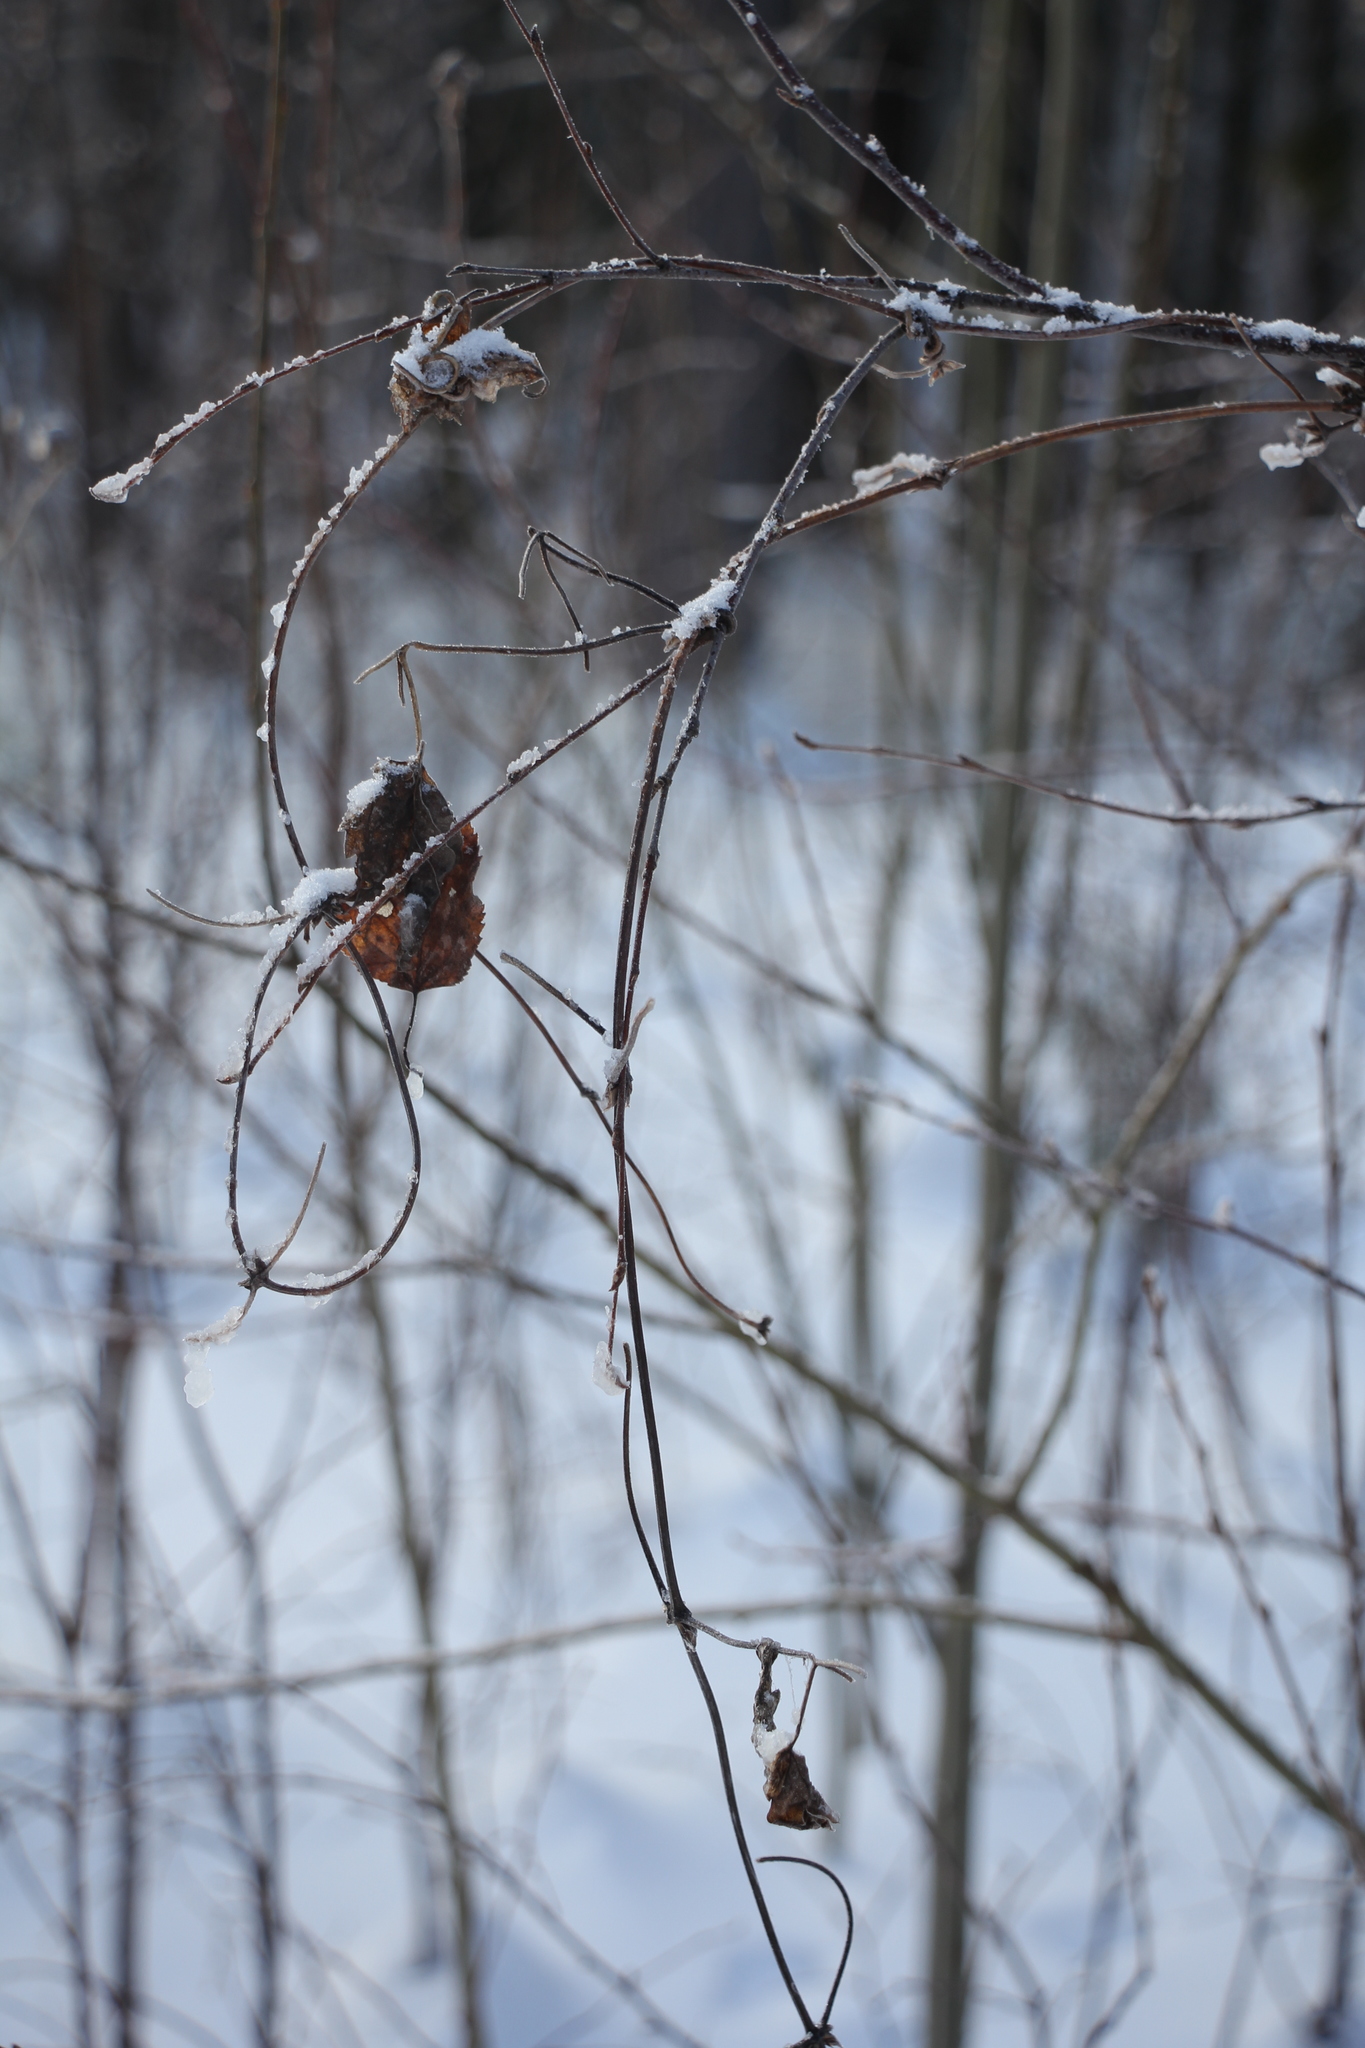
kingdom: Plantae
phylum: Tracheophyta
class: Magnoliopsida
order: Ranunculales
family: Ranunculaceae
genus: Clematis
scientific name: Clematis sibirica
